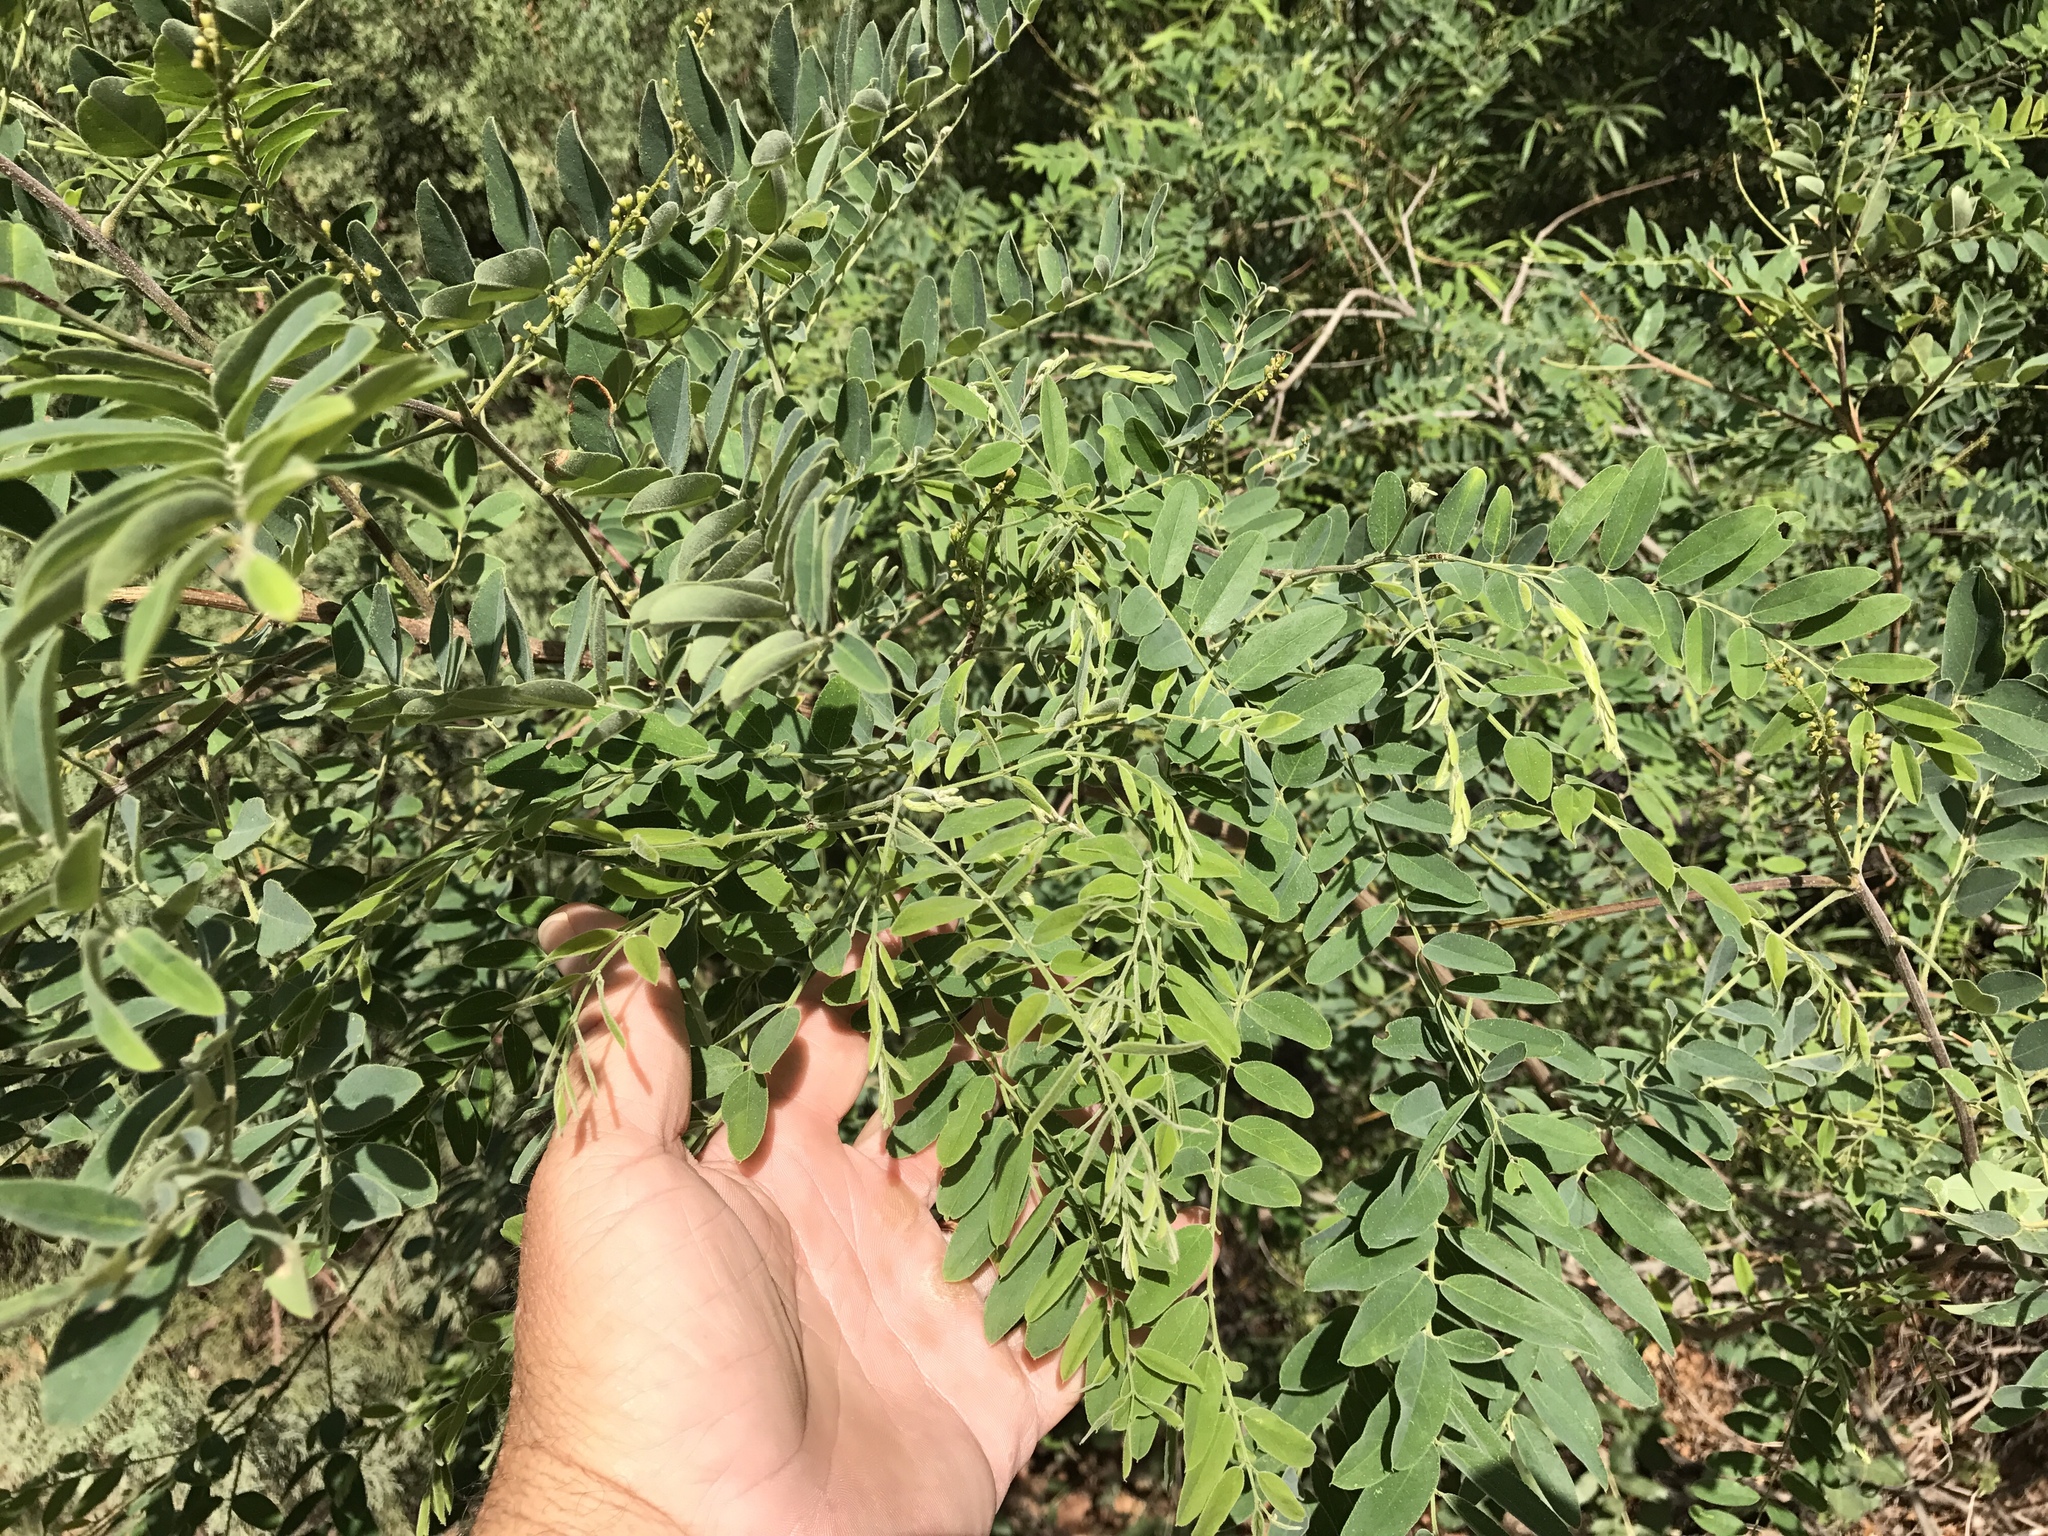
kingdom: Plantae
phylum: Tracheophyta
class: Magnoliopsida
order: Fabales
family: Fabaceae
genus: Robinia
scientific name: Robinia neomexicana
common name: New mexico locust
